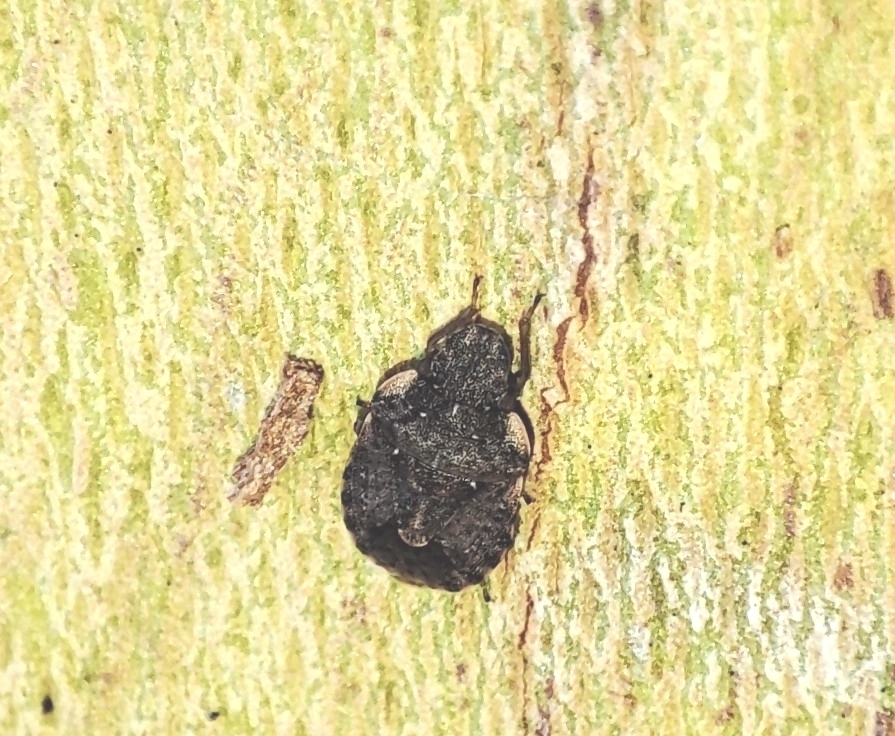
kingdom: Animalia
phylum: Arthropoda
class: Insecta
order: Hemiptera
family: Pentatomidae
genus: Sciocoris
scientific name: Sciocoris sideritidis
